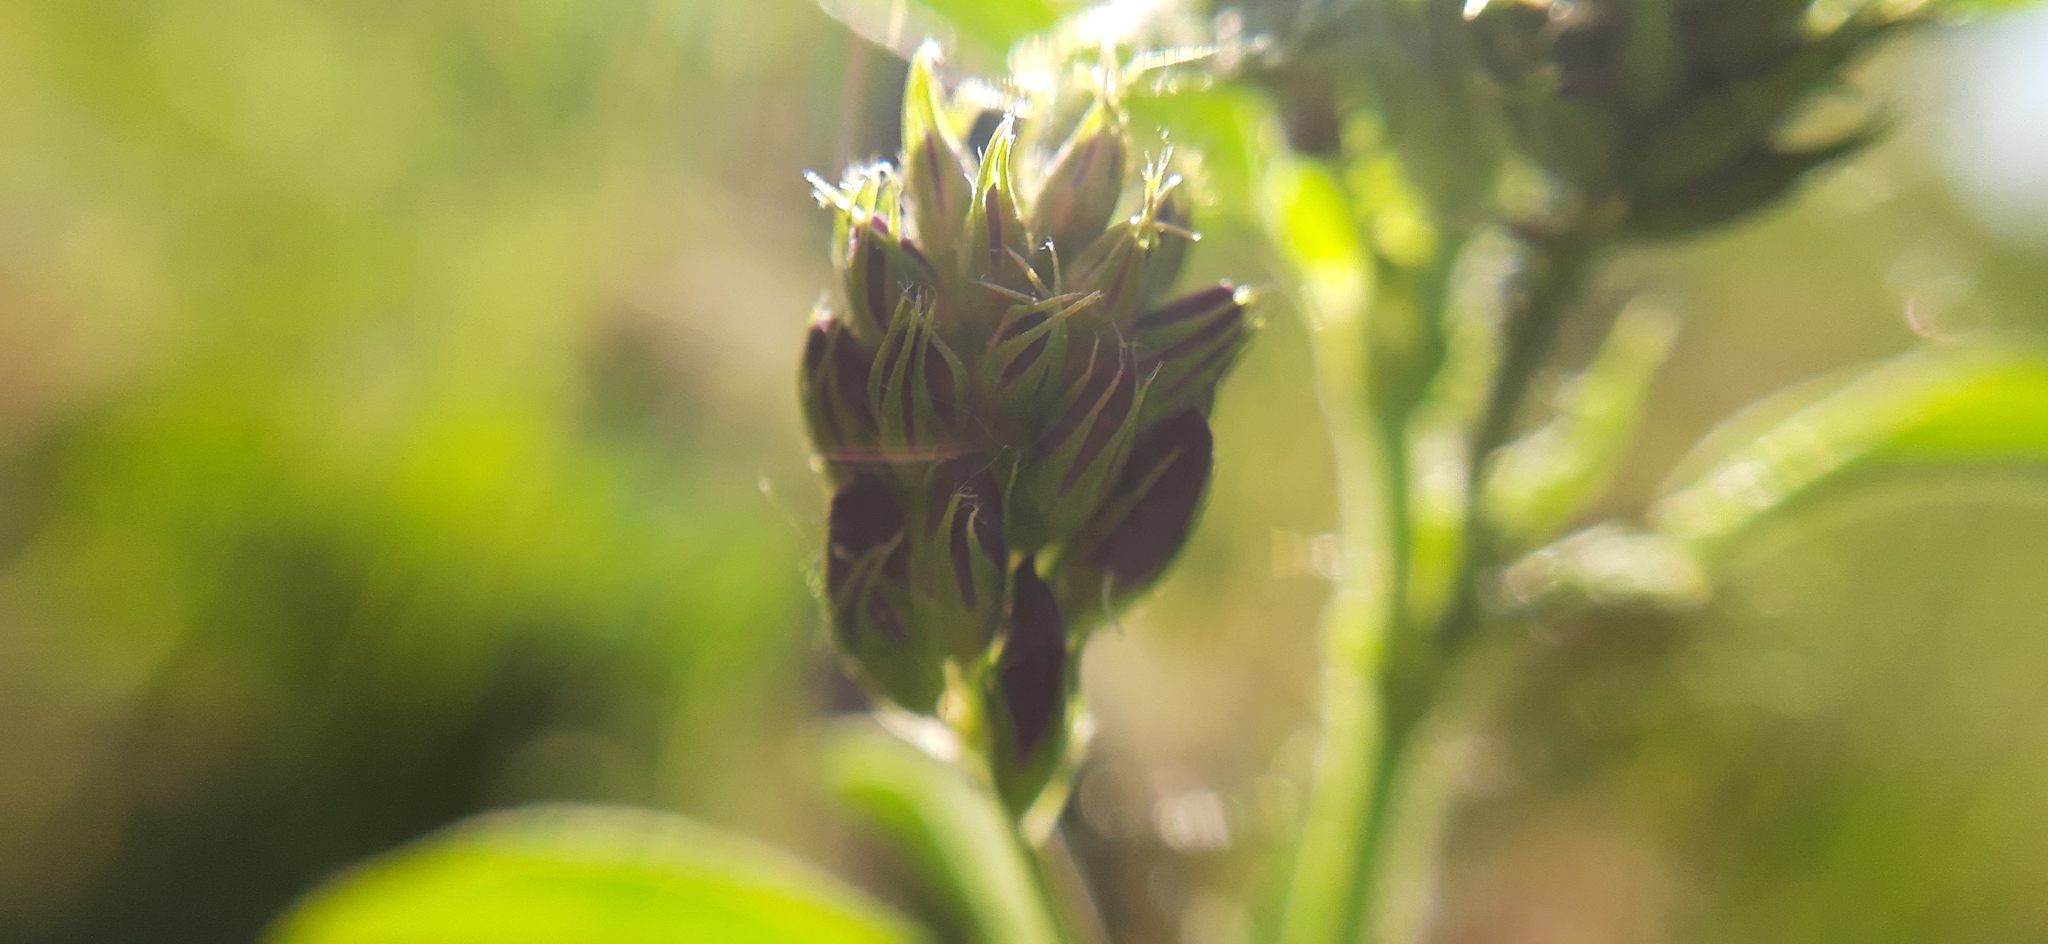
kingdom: Plantae
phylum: Tracheophyta
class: Magnoliopsida
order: Fabales
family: Fabaceae
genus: Medicago
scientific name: Medicago
